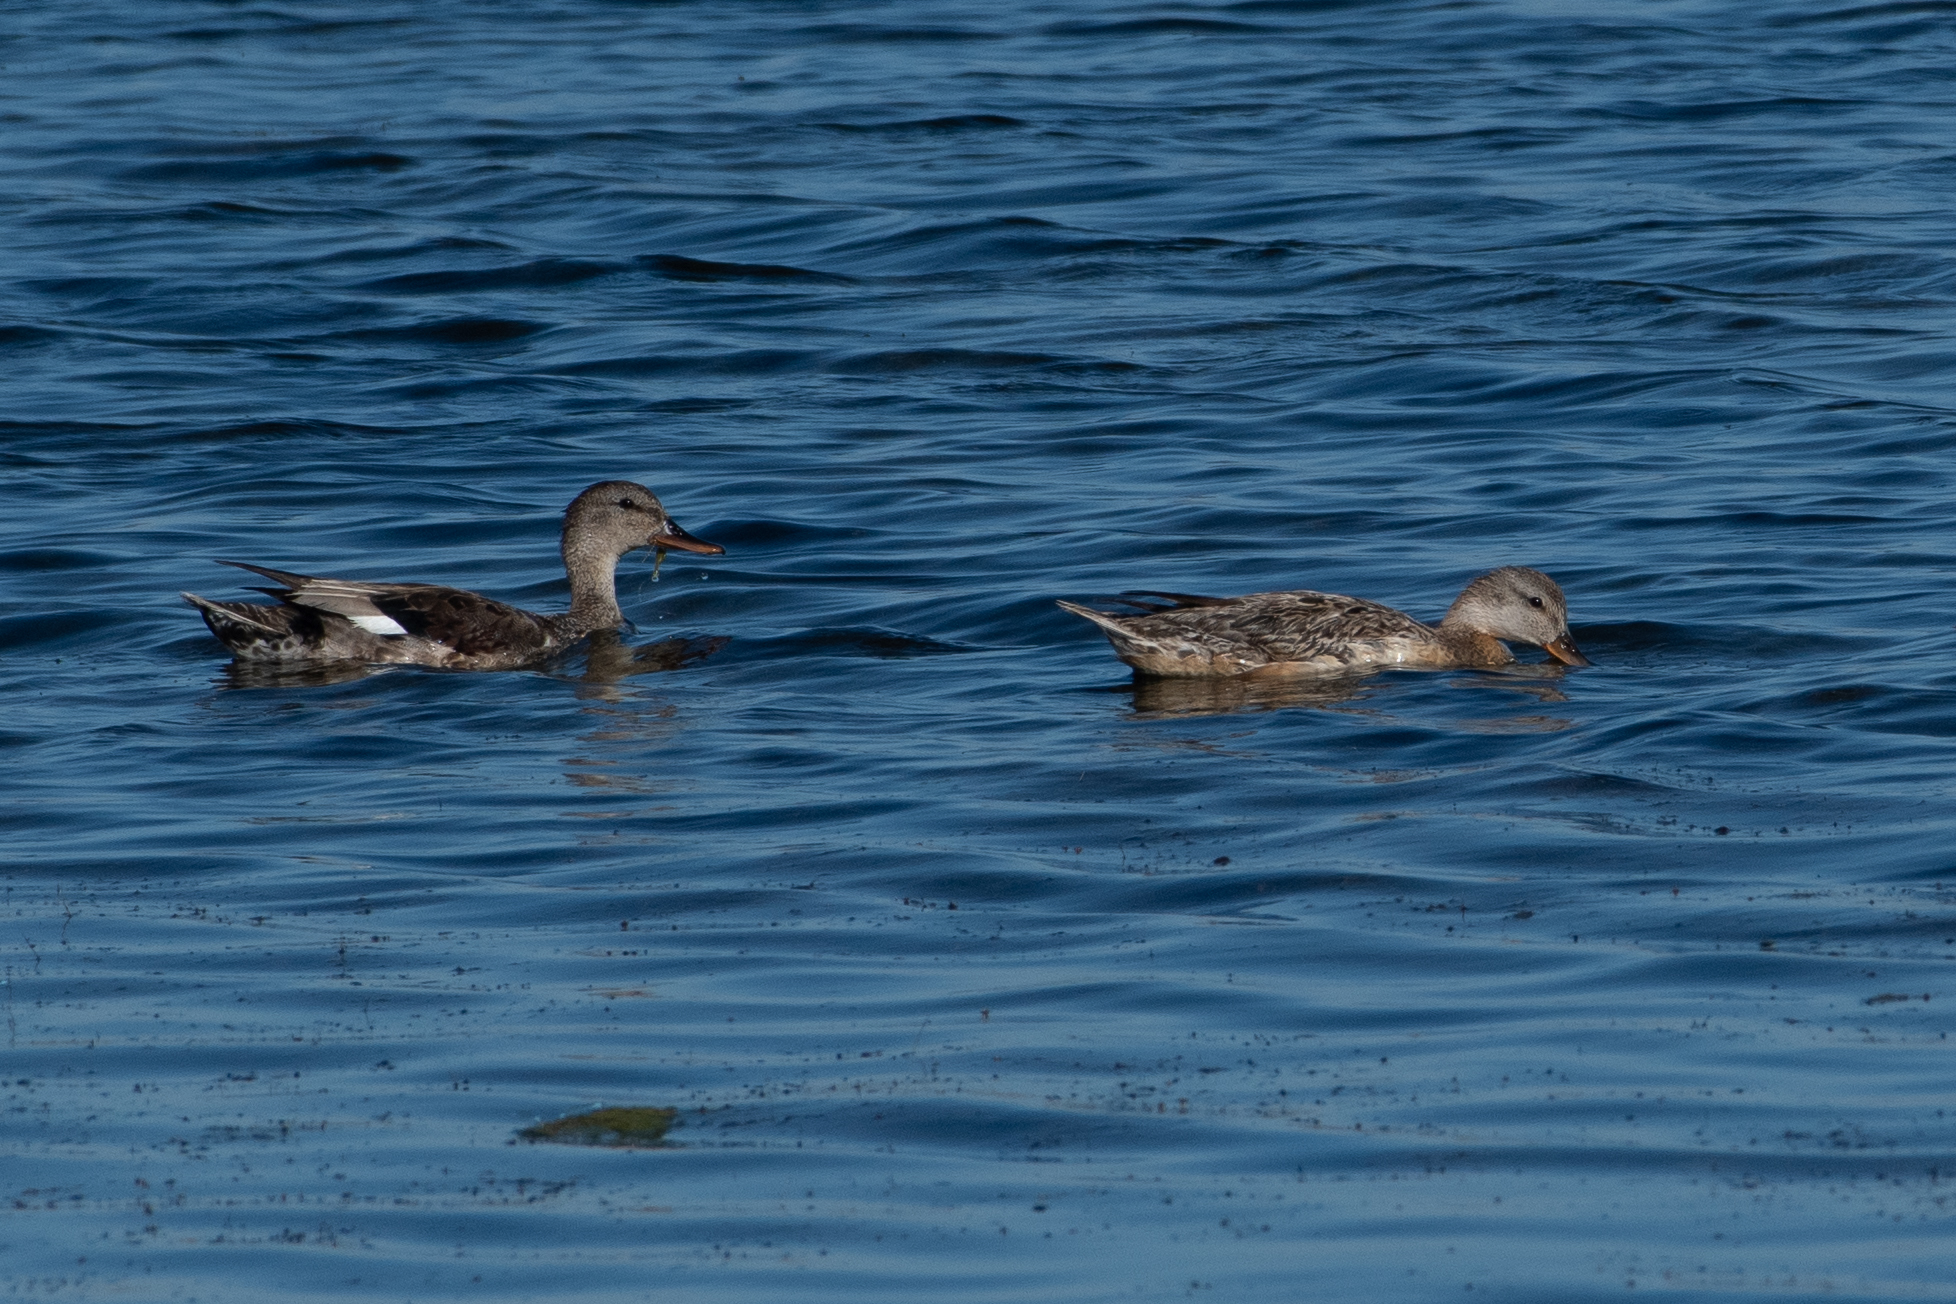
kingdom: Animalia
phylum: Chordata
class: Aves
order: Anseriformes
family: Anatidae
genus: Mareca
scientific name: Mareca strepera
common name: Gadwall
